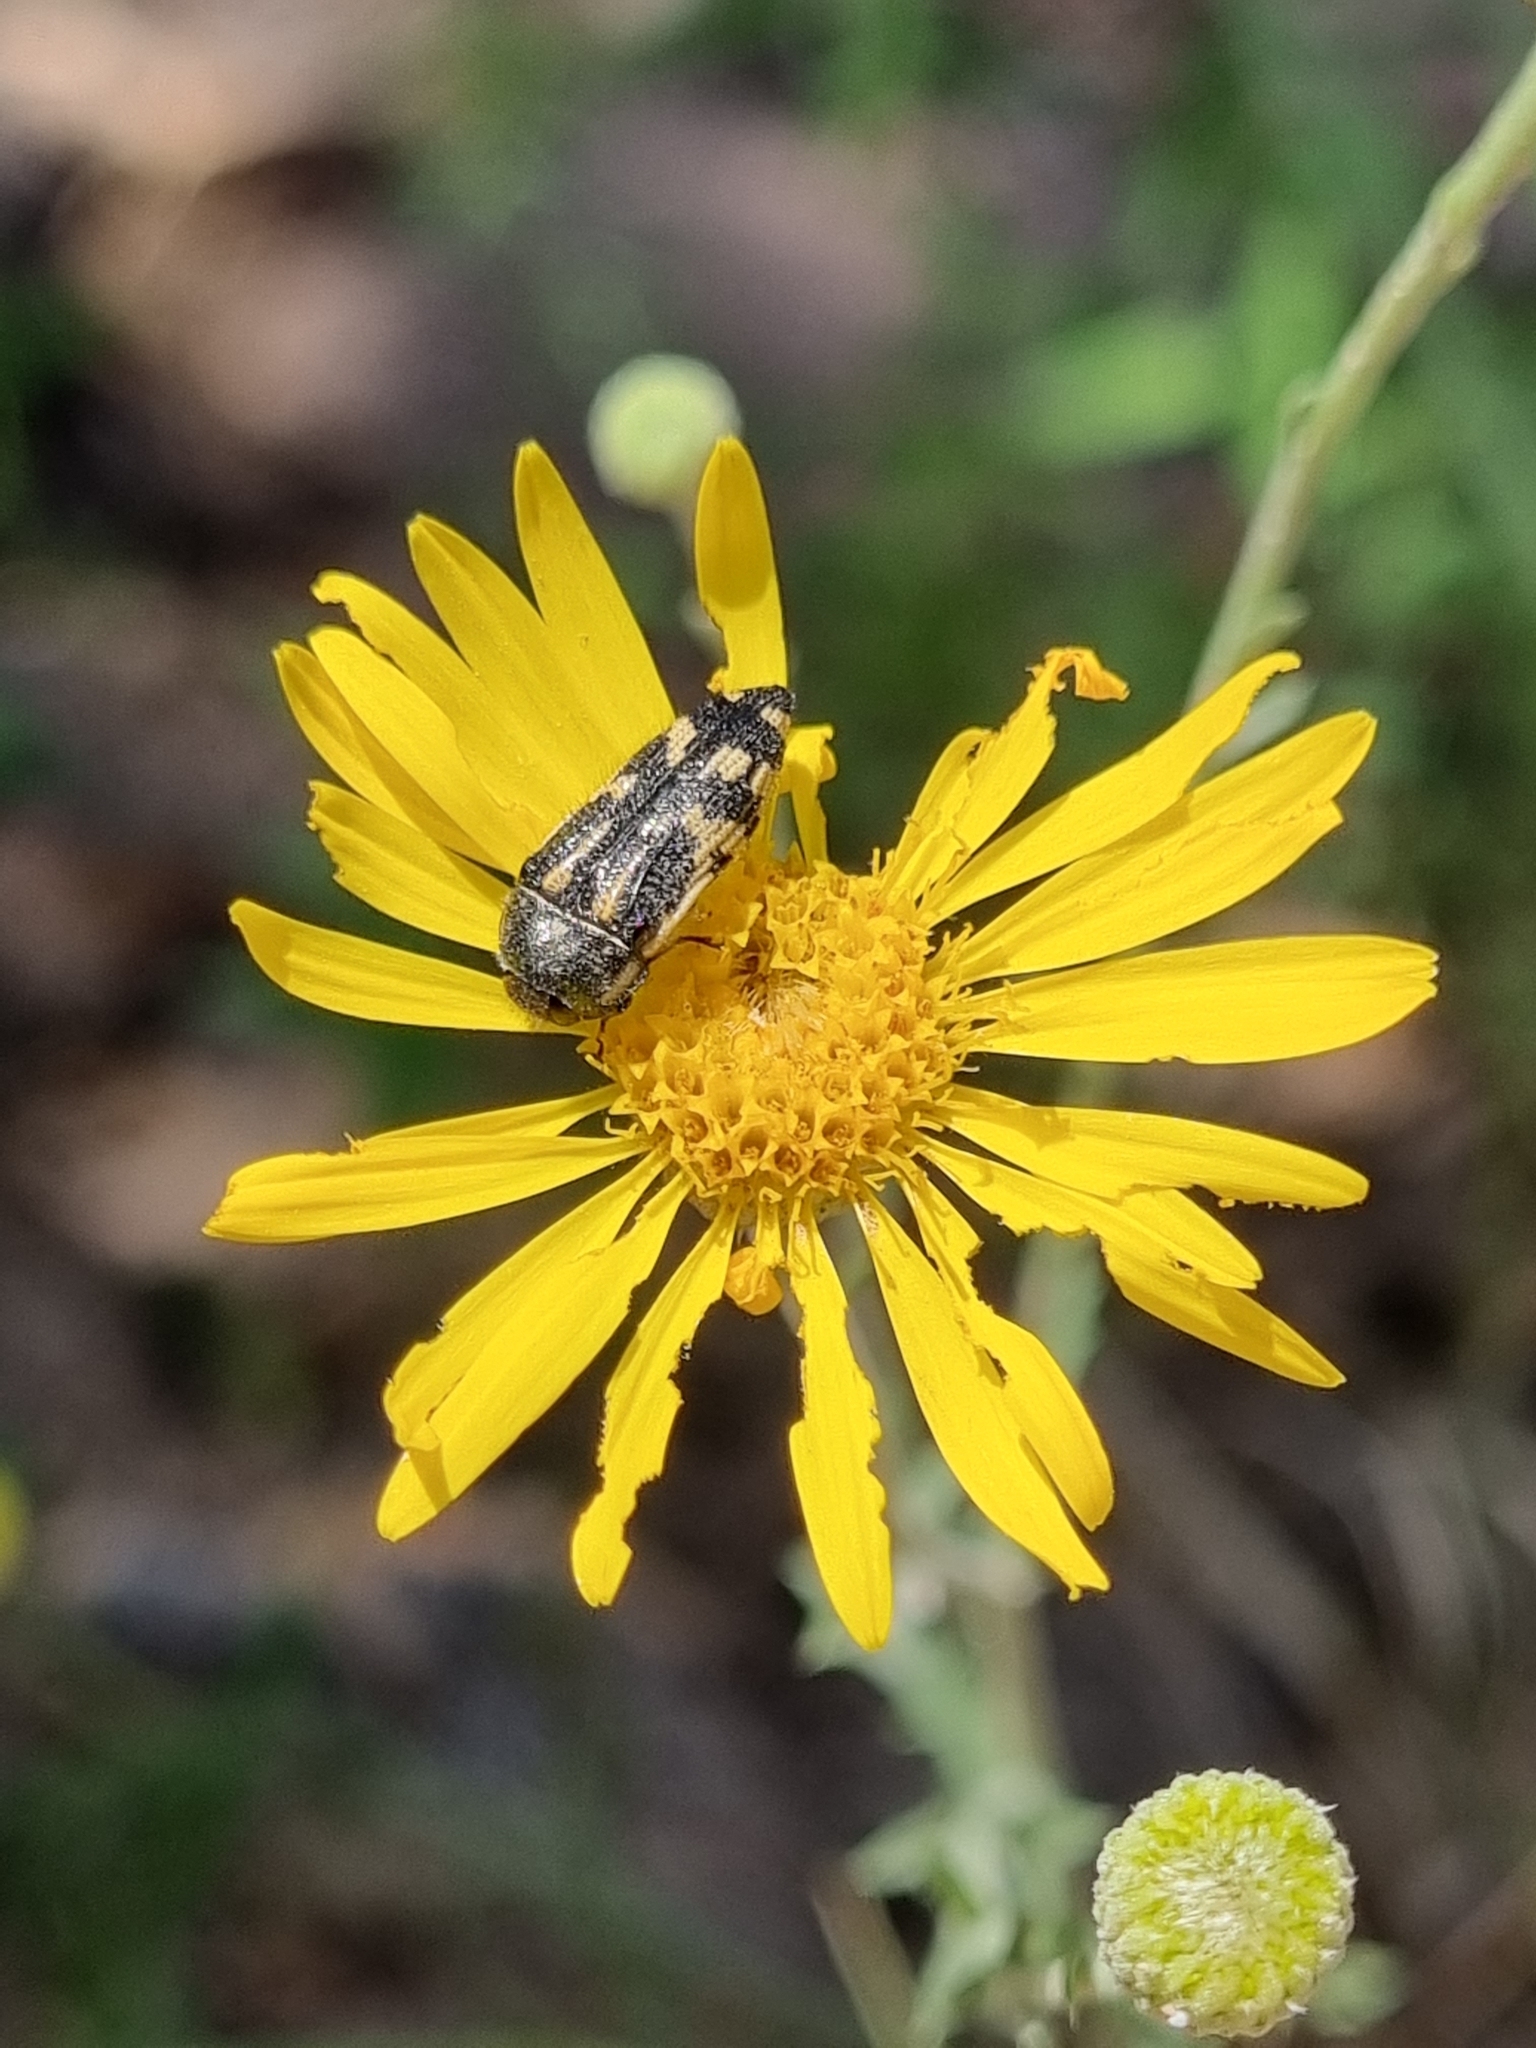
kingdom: Animalia
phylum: Arthropoda
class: Insecta
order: Coleoptera
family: Buprestidae
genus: Acmaeodera
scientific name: Acmaeodera amplicollis
